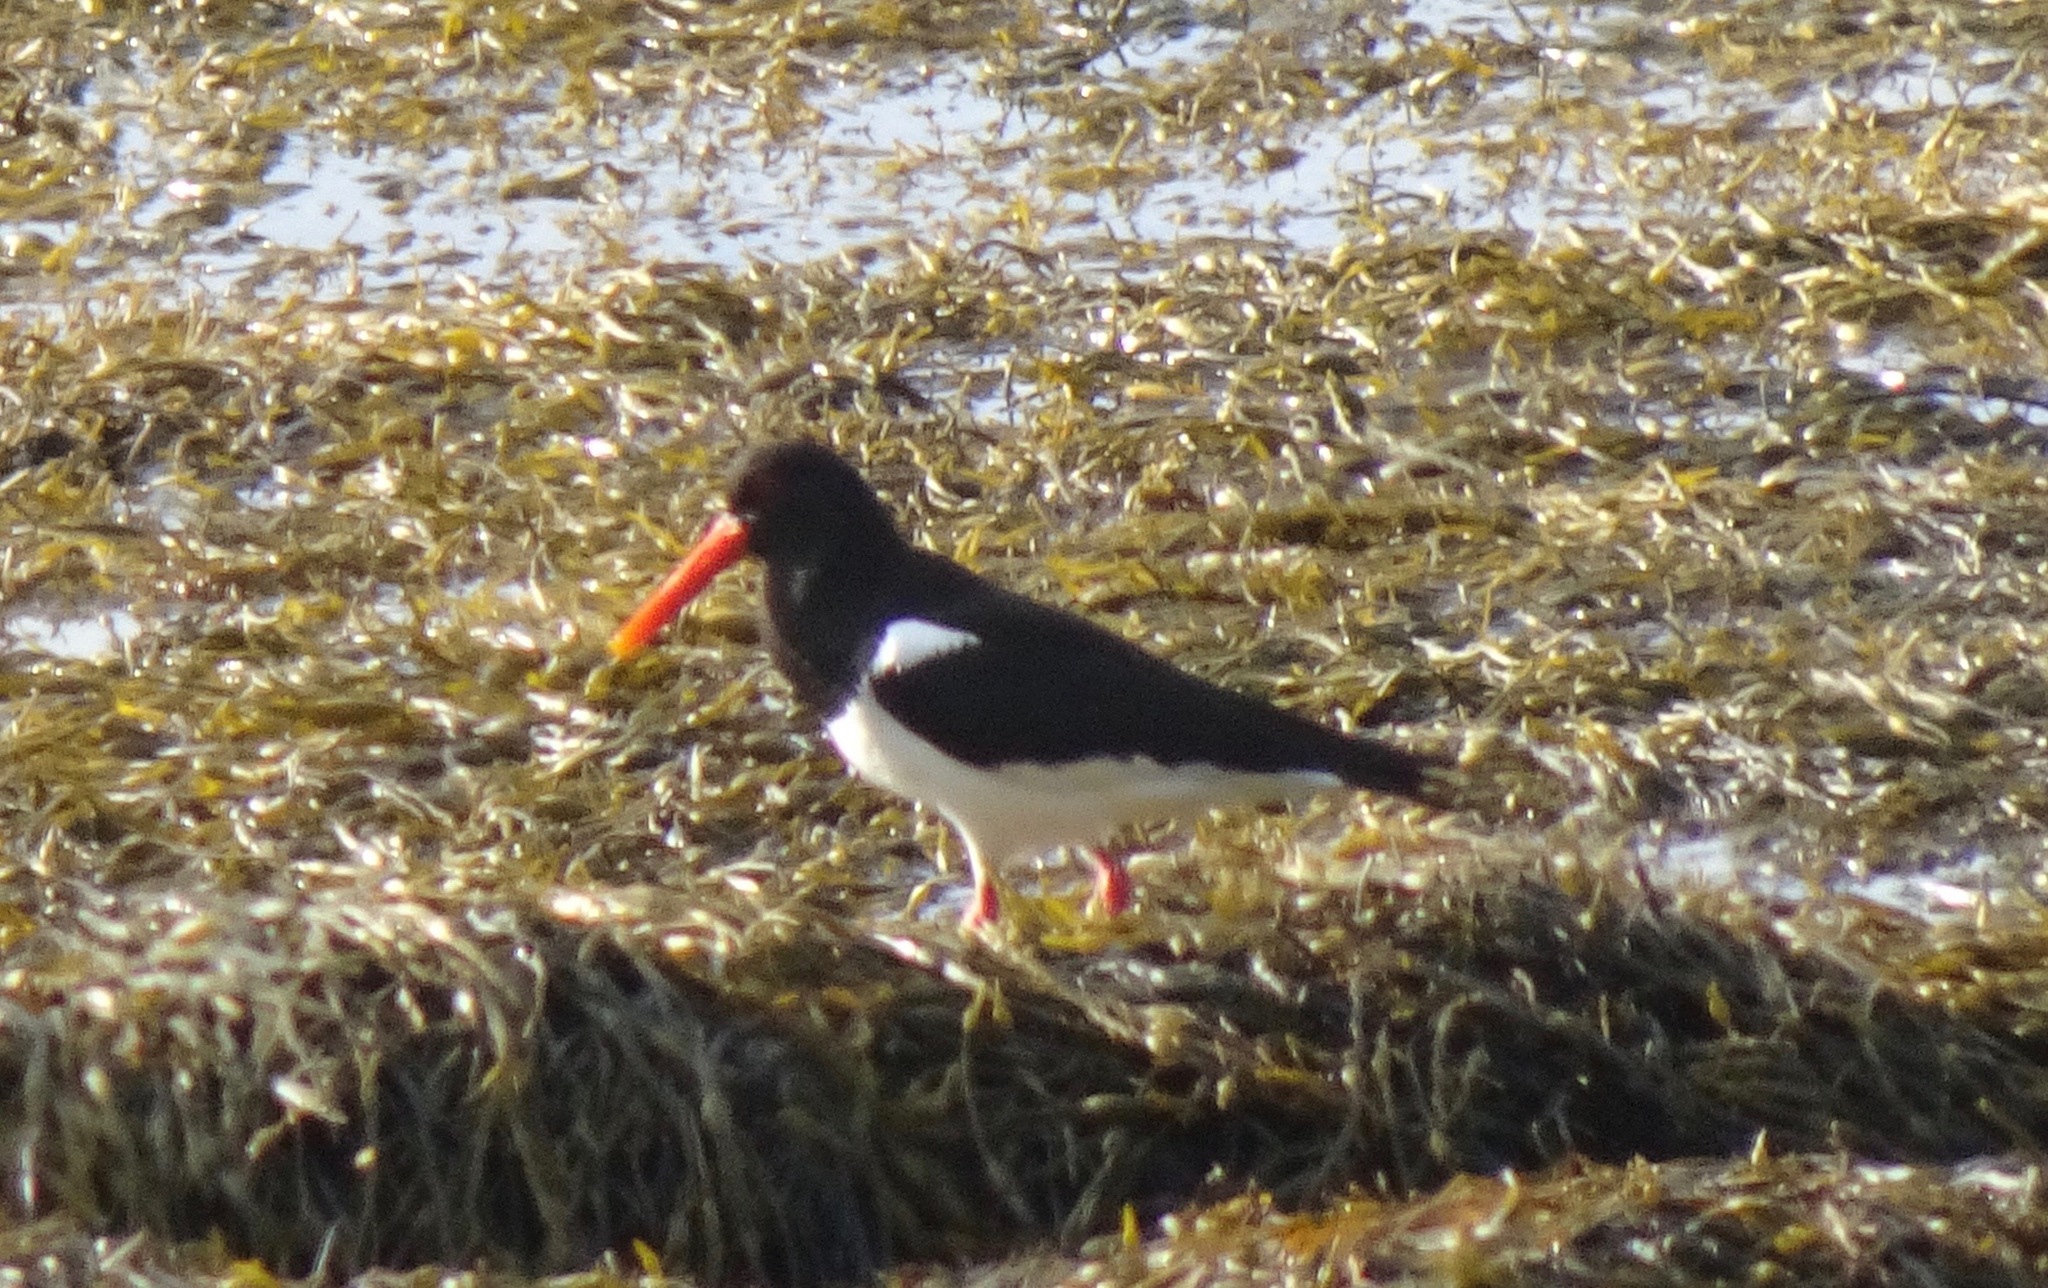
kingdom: Animalia
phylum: Chordata
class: Aves
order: Charadriiformes
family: Haematopodidae
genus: Haematopus
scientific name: Haematopus ostralegus
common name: Eurasian oystercatcher
